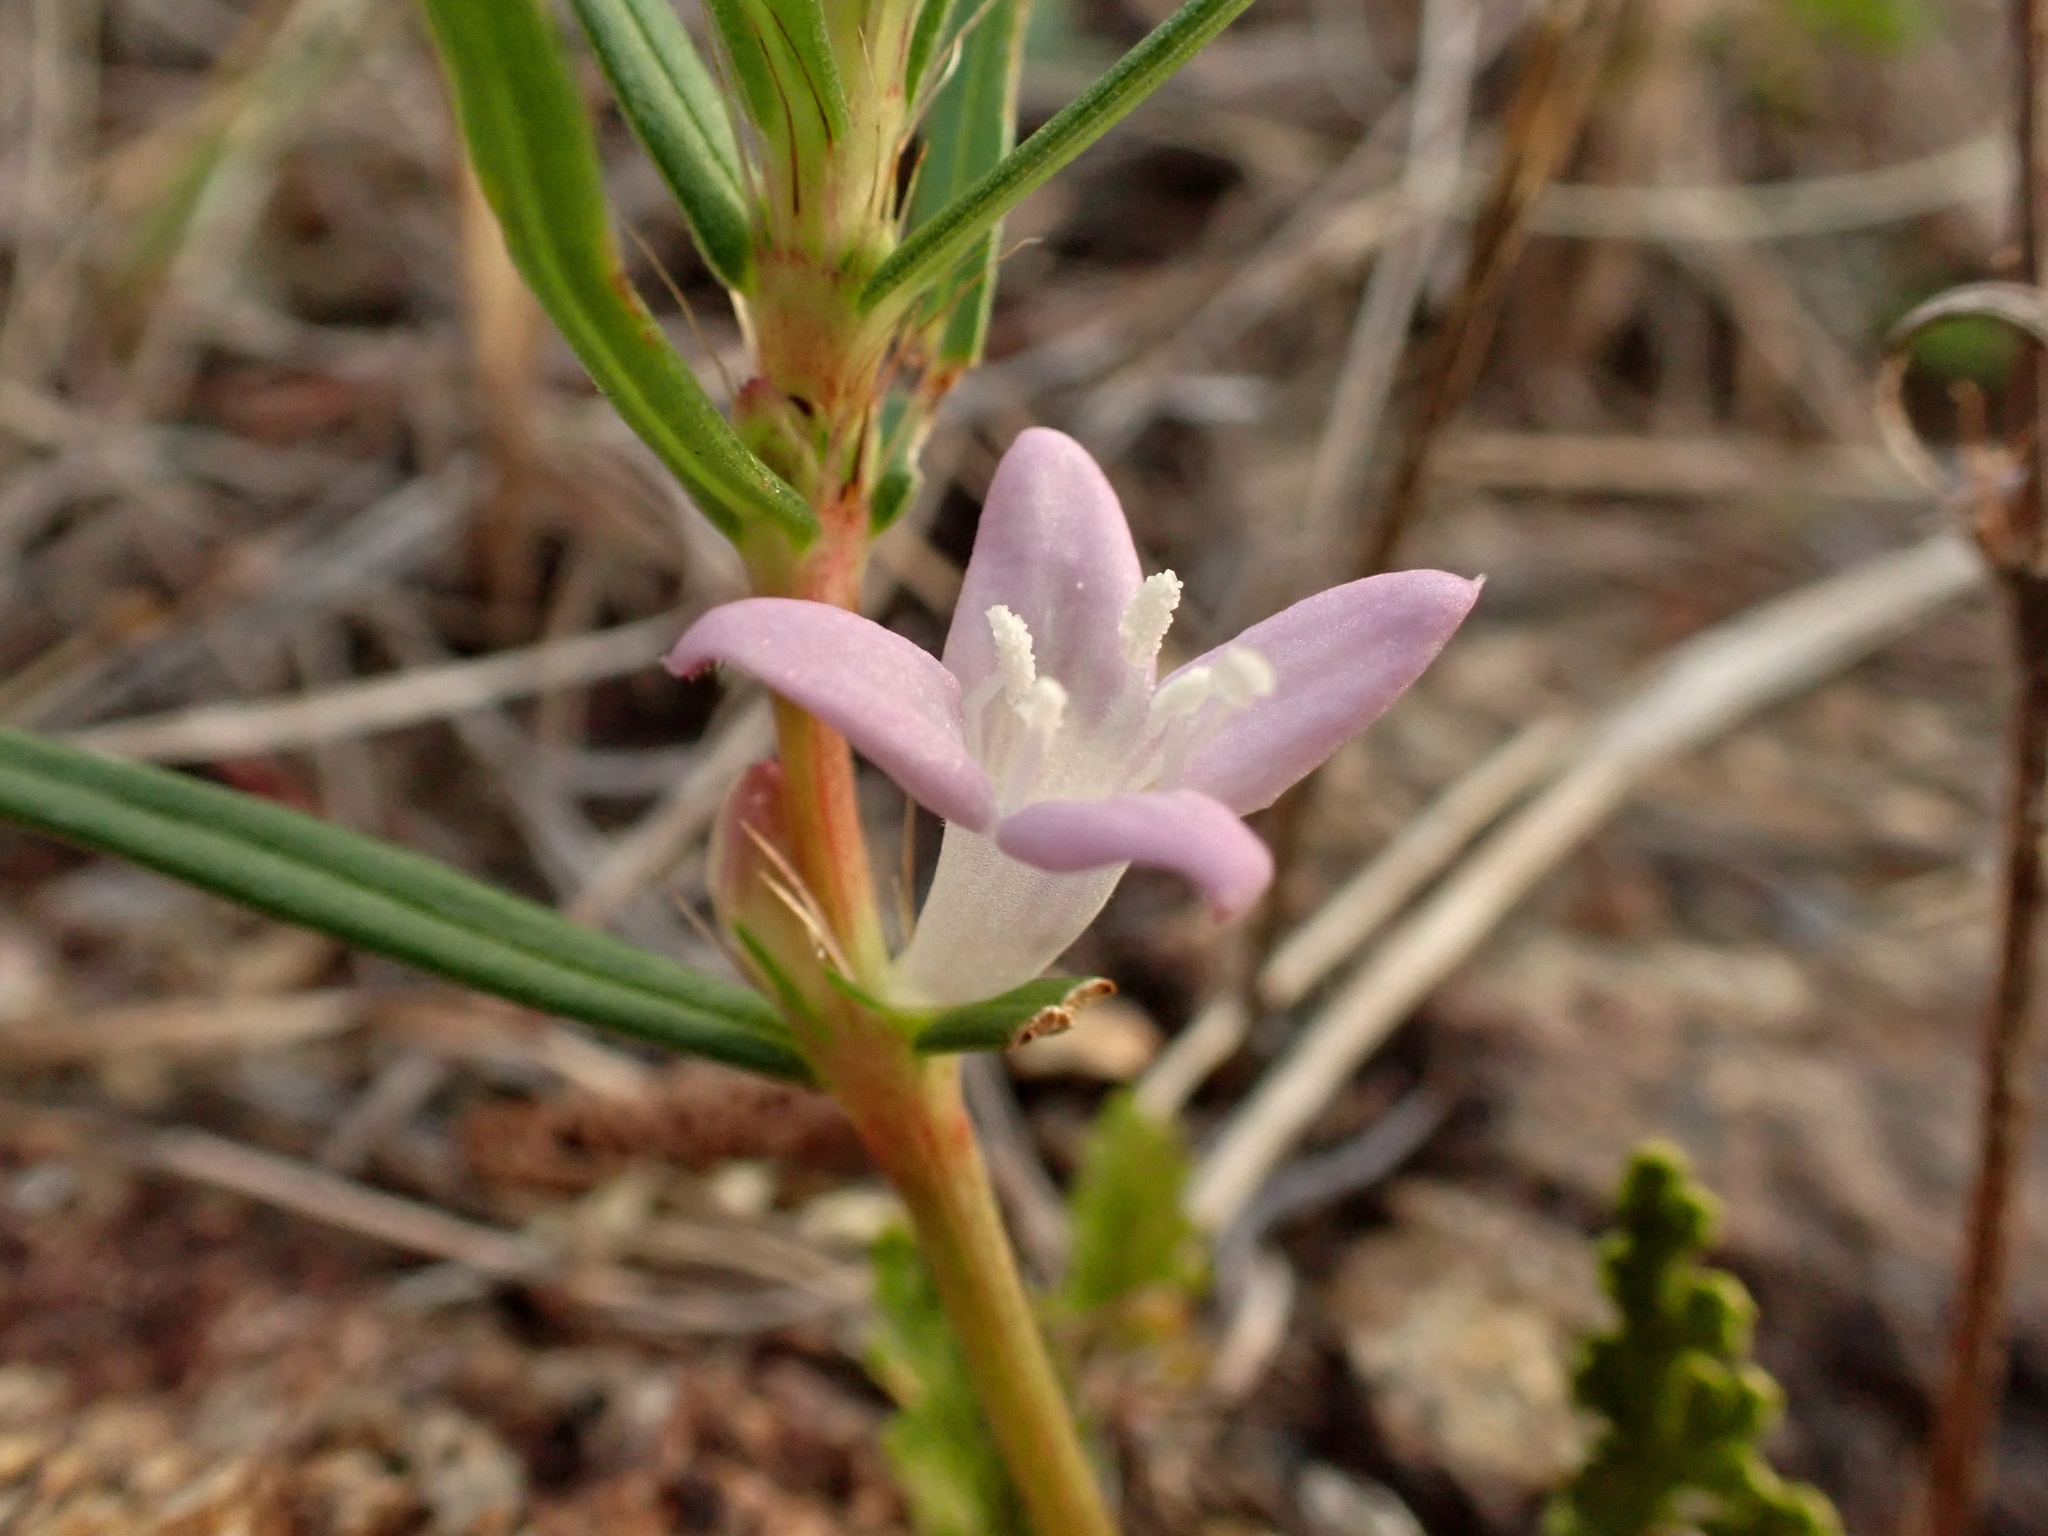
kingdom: Plantae
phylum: Tracheophyta
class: Magnoliopsida
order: Gentianales
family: Rubiaceae
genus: Hexasepalum
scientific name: Hexasepalum apiculatum
